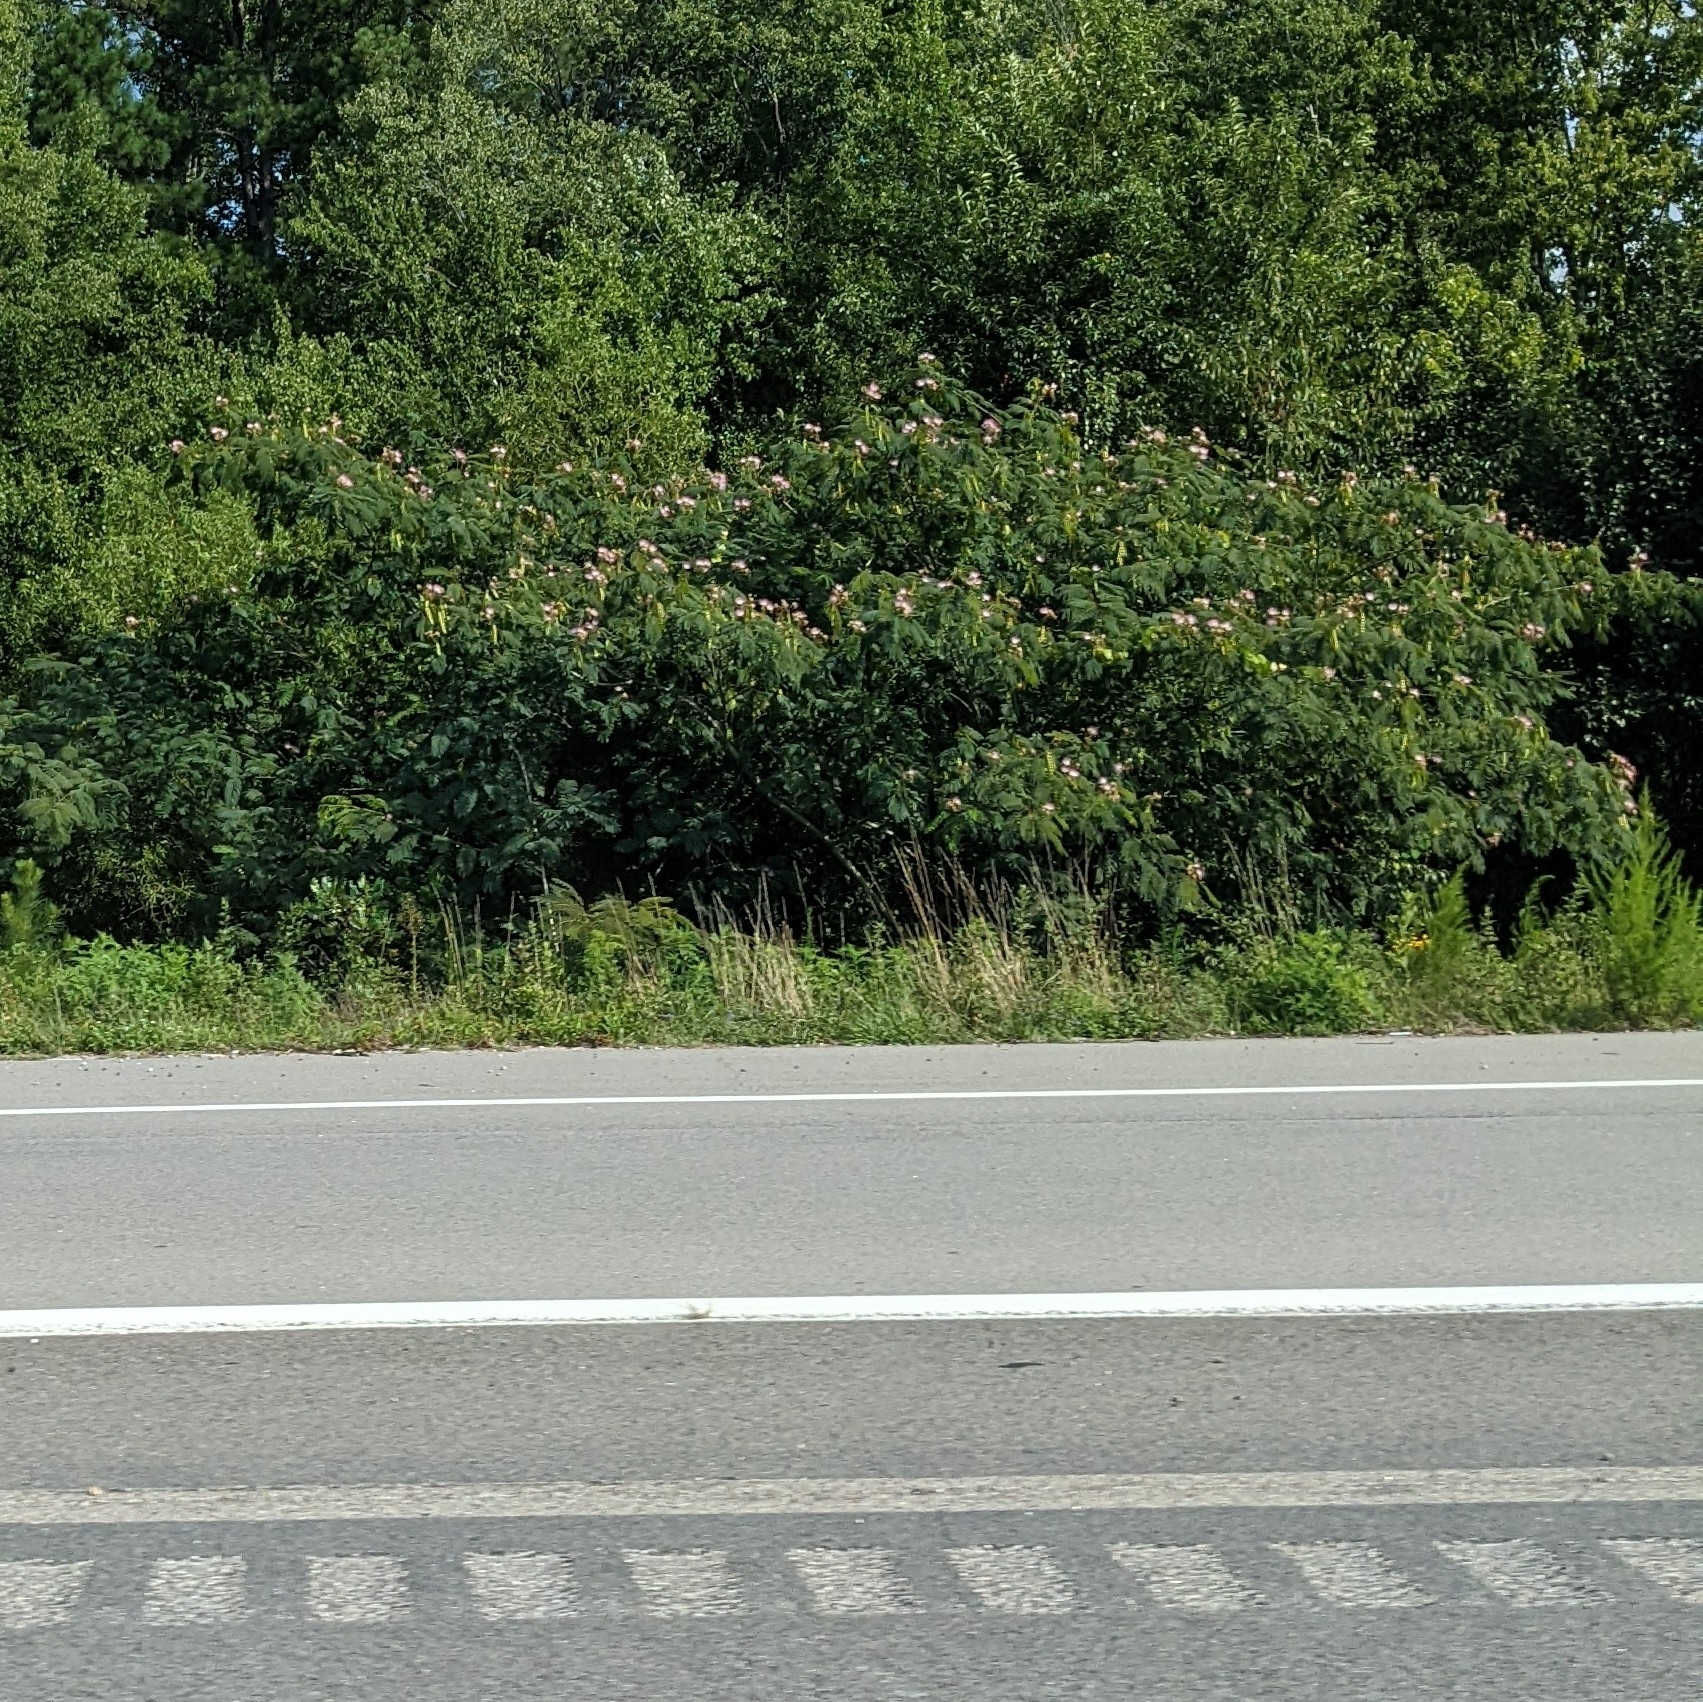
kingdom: Plantae
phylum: Tracheophyta
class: Magnoliopsida
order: Fabales
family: Fabaceae
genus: Albizia
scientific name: Albizia julibrissin
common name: Silktree
